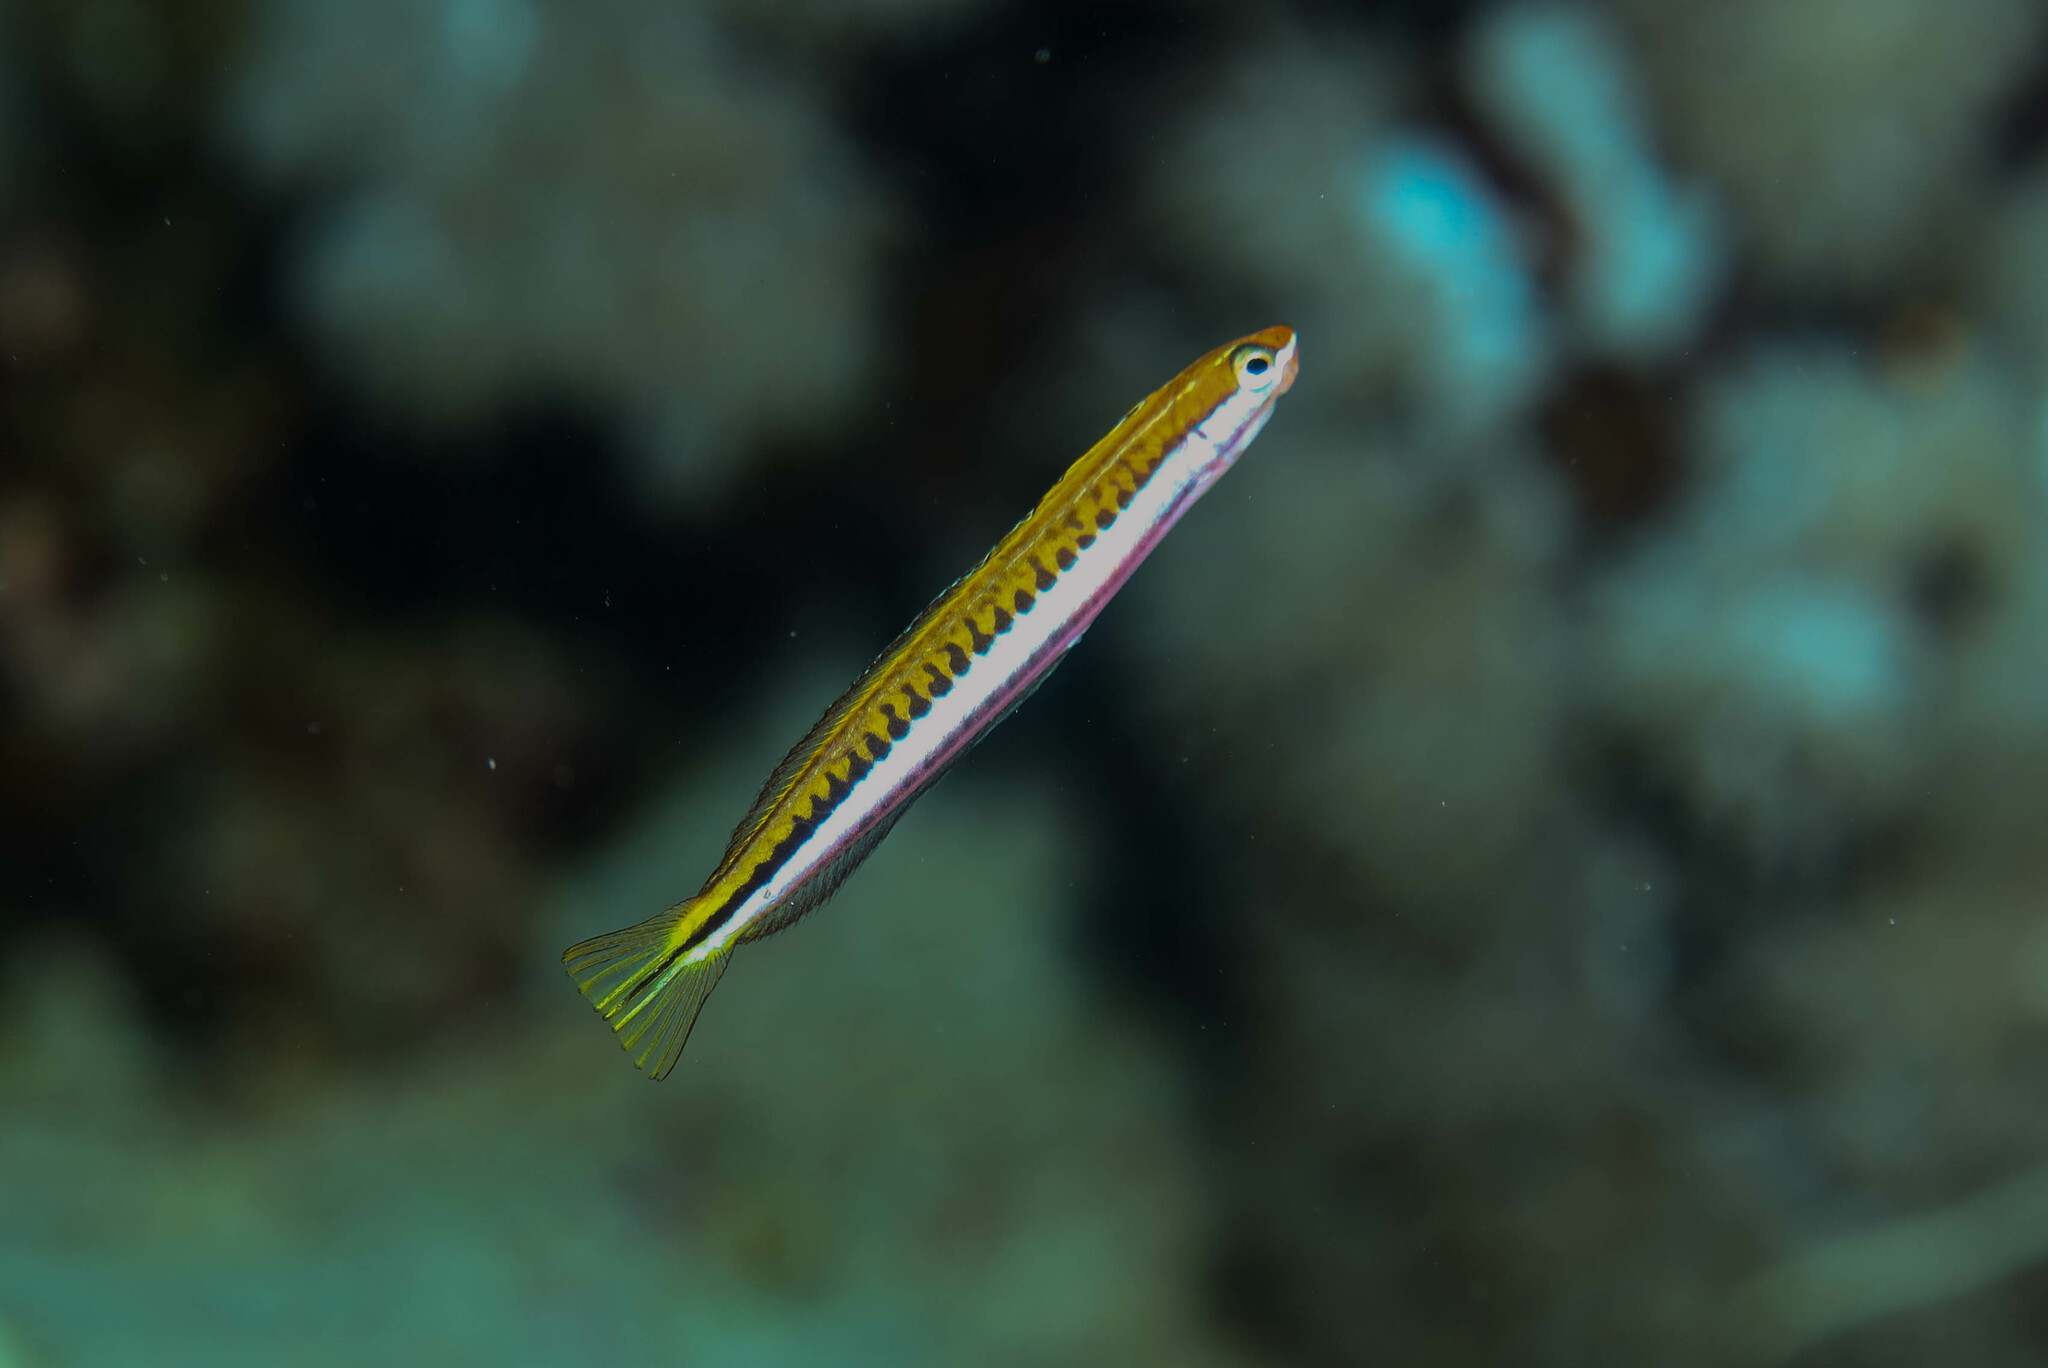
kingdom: Animalia
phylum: Chordata
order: Perciformes
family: Blenniidae
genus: Plagiotremus
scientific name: Plagiotremus tapeinosoma
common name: Hit and run blenny
